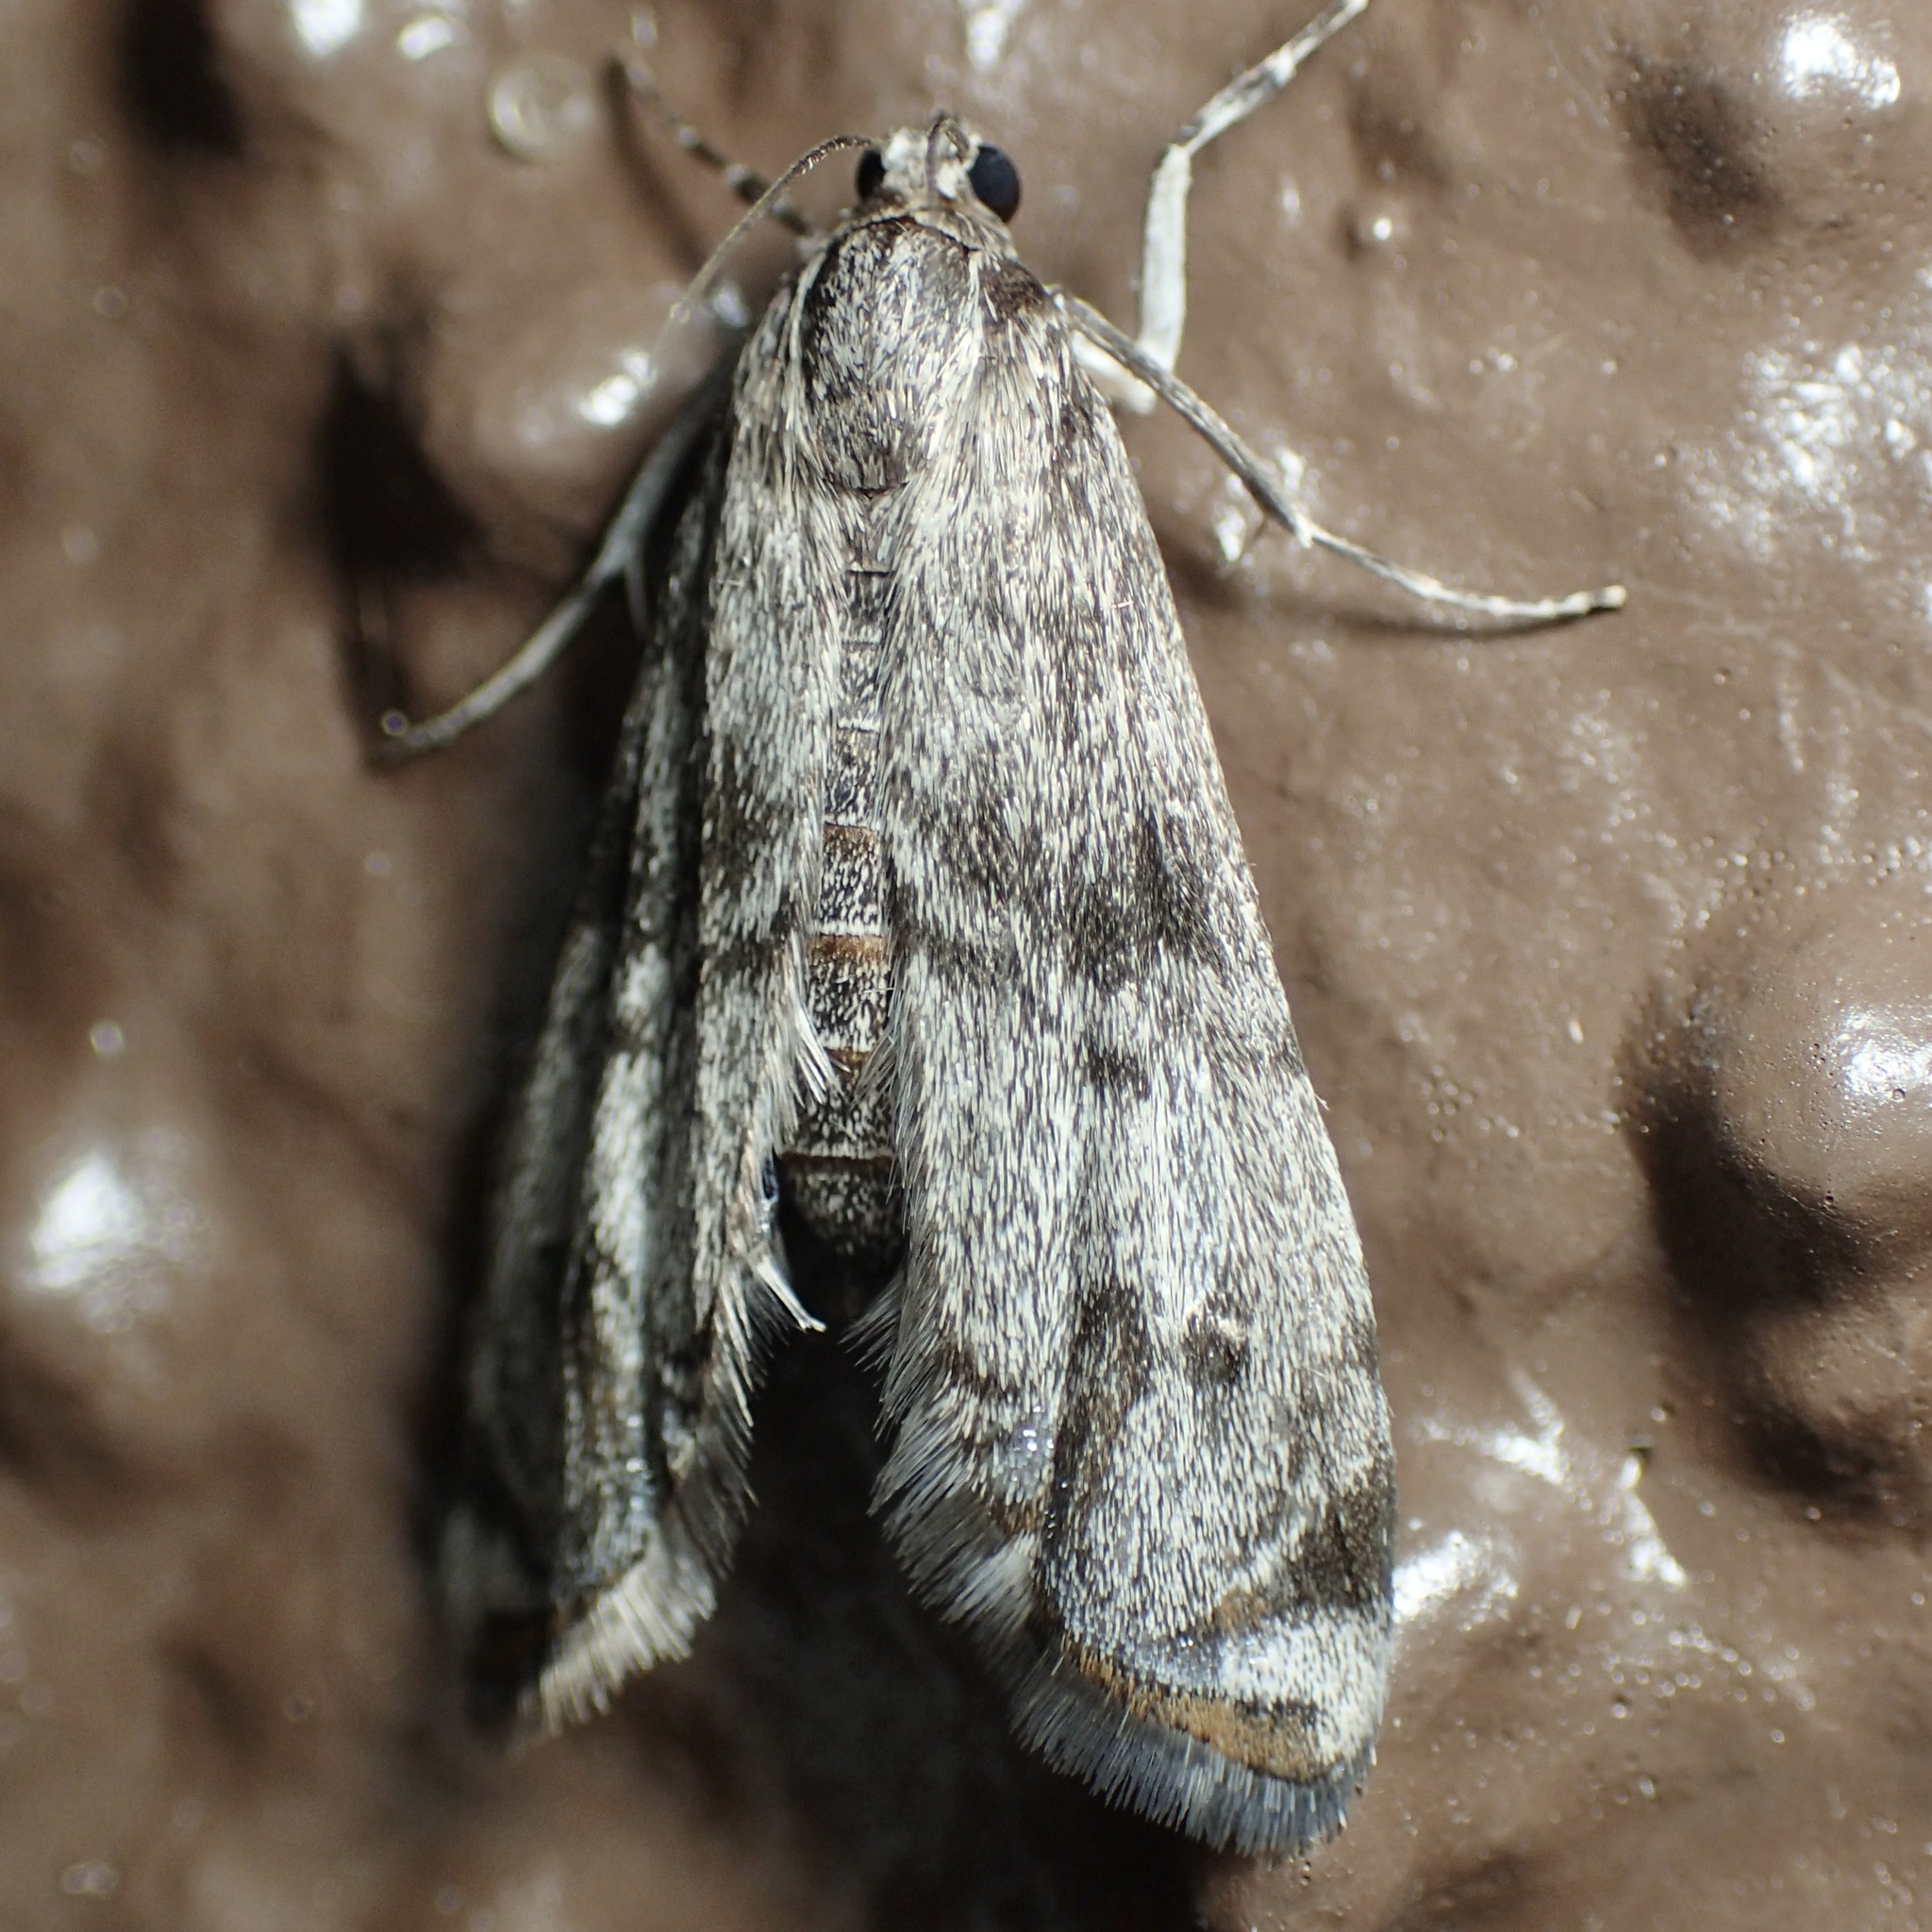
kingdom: Animalia
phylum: Arthropoda
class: Insecta
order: Lepidoptera
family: Crambidae
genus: Petrophila
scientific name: Petrophila schaefferalis
